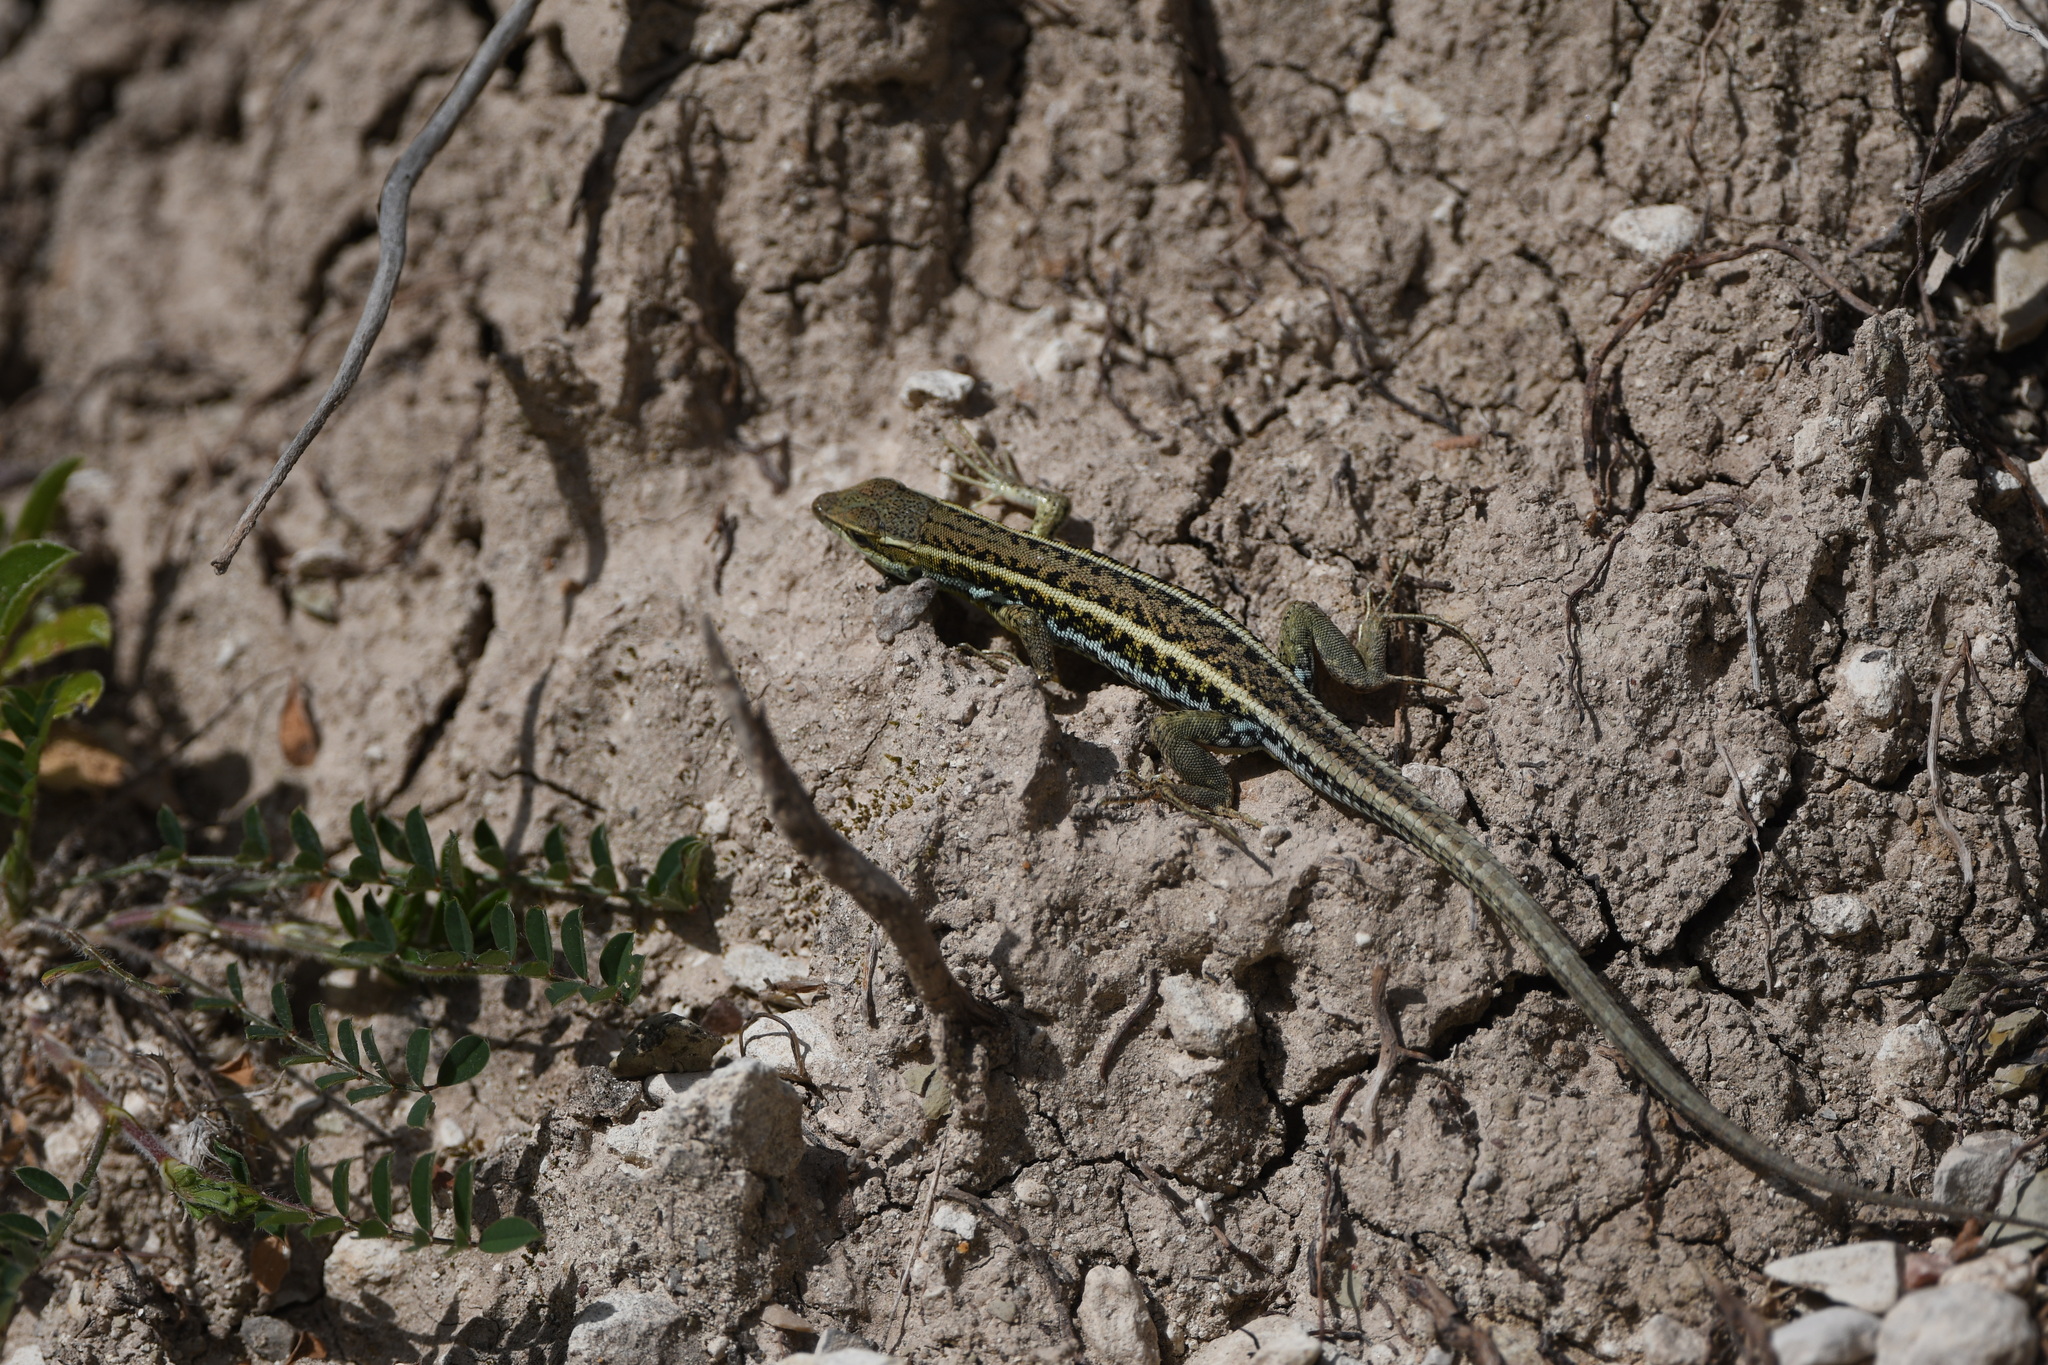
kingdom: Animalia
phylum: Chordata
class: Squamata
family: Lacertidae
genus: Ophisops
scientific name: Ophisops elegans
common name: Snake-eyed lizard
